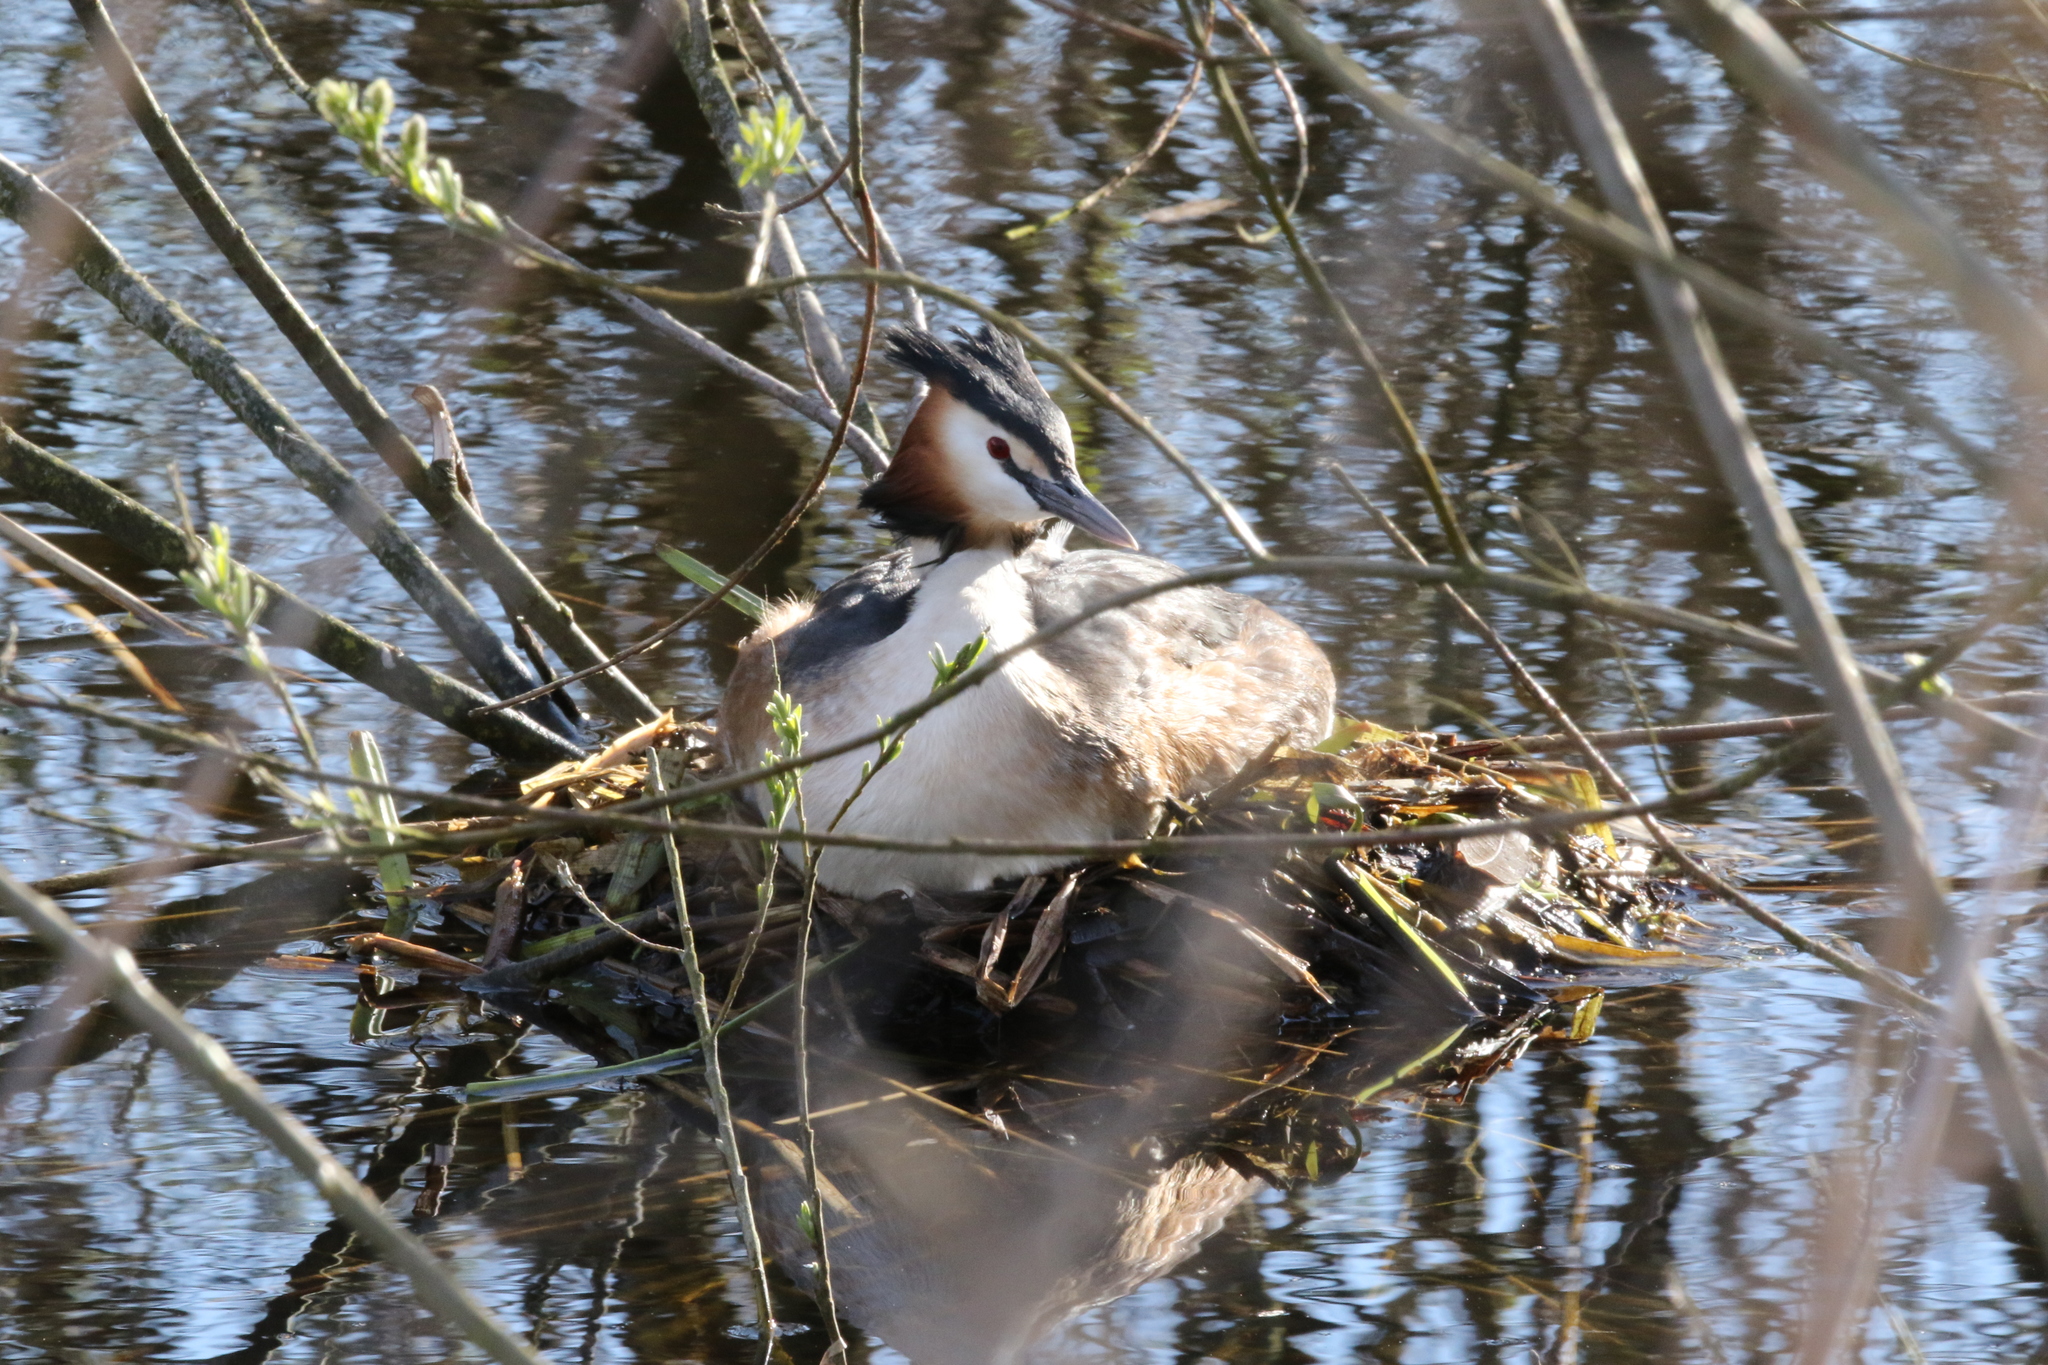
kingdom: Animalia
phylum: Chordata
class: Aves
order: Podicipediformes
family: Podicipedidae
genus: Podiceps
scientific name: Podiceps cristatus
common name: Great crested grebe
